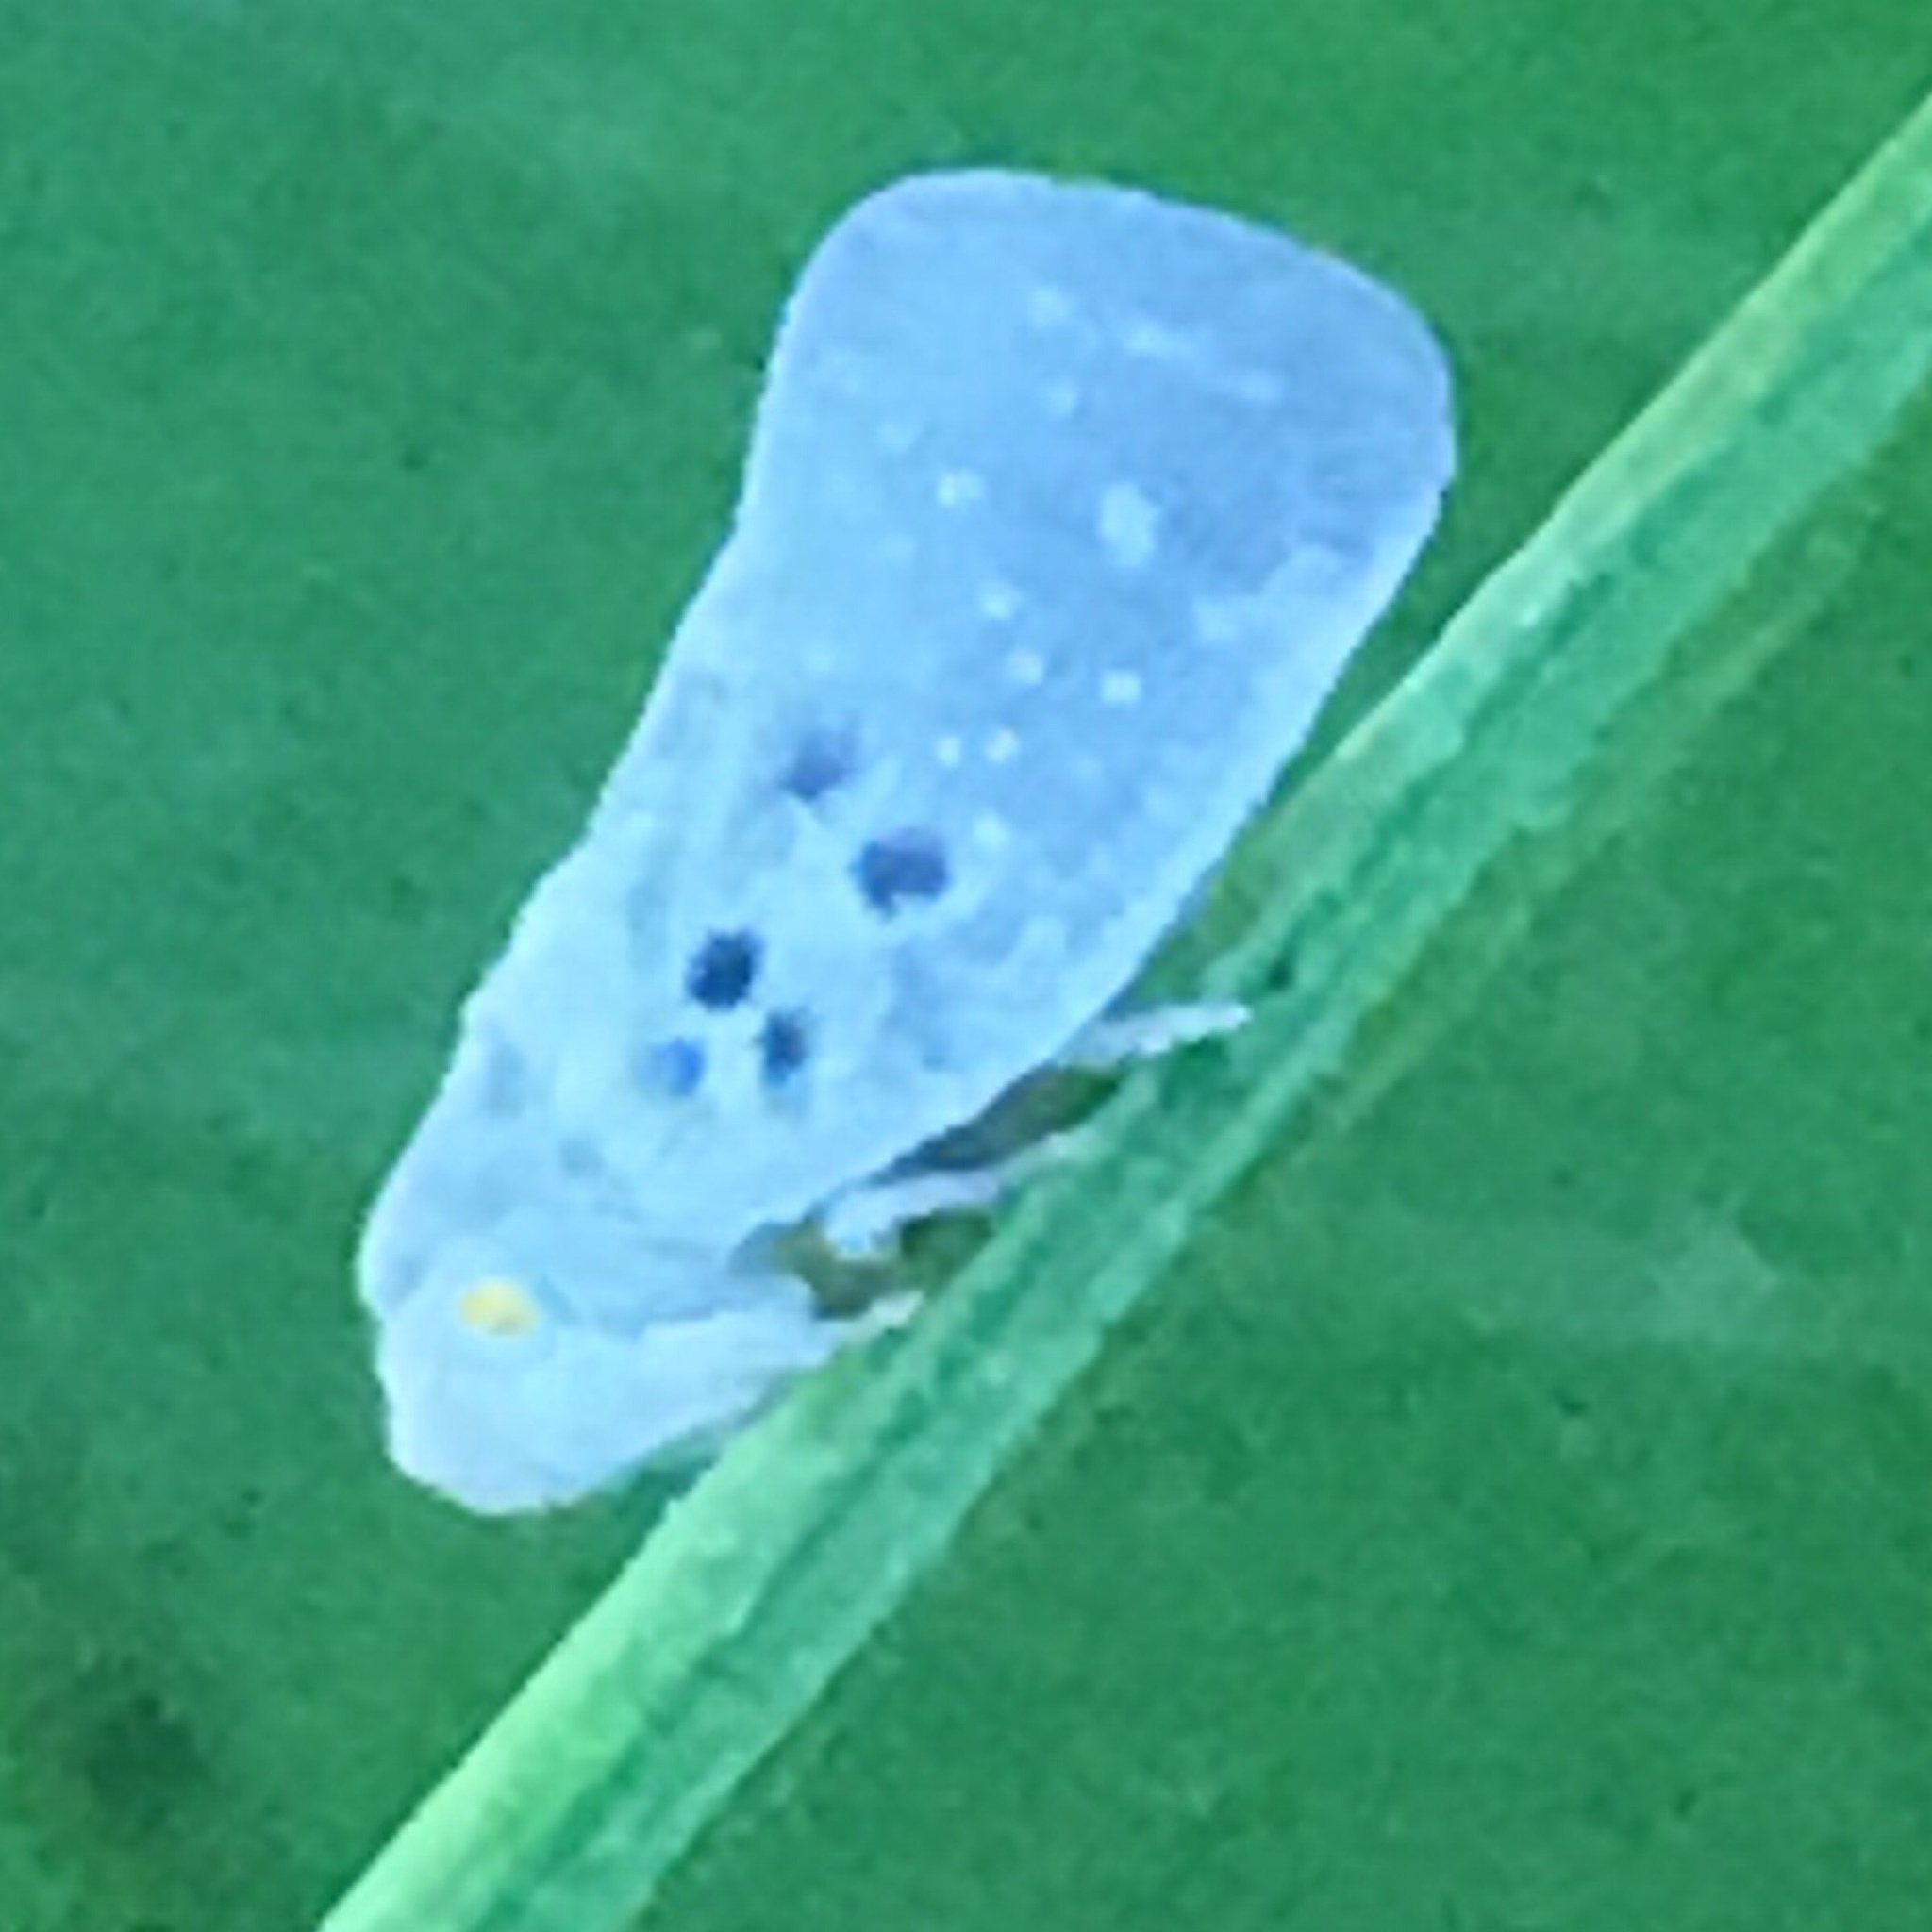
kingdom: Animalia
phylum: Arthropoda
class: Insecta
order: Hemiptera
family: Flatidae
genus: Metcalfa
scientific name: Metcalfa pruinosa
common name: Citrus flatid planthopper
